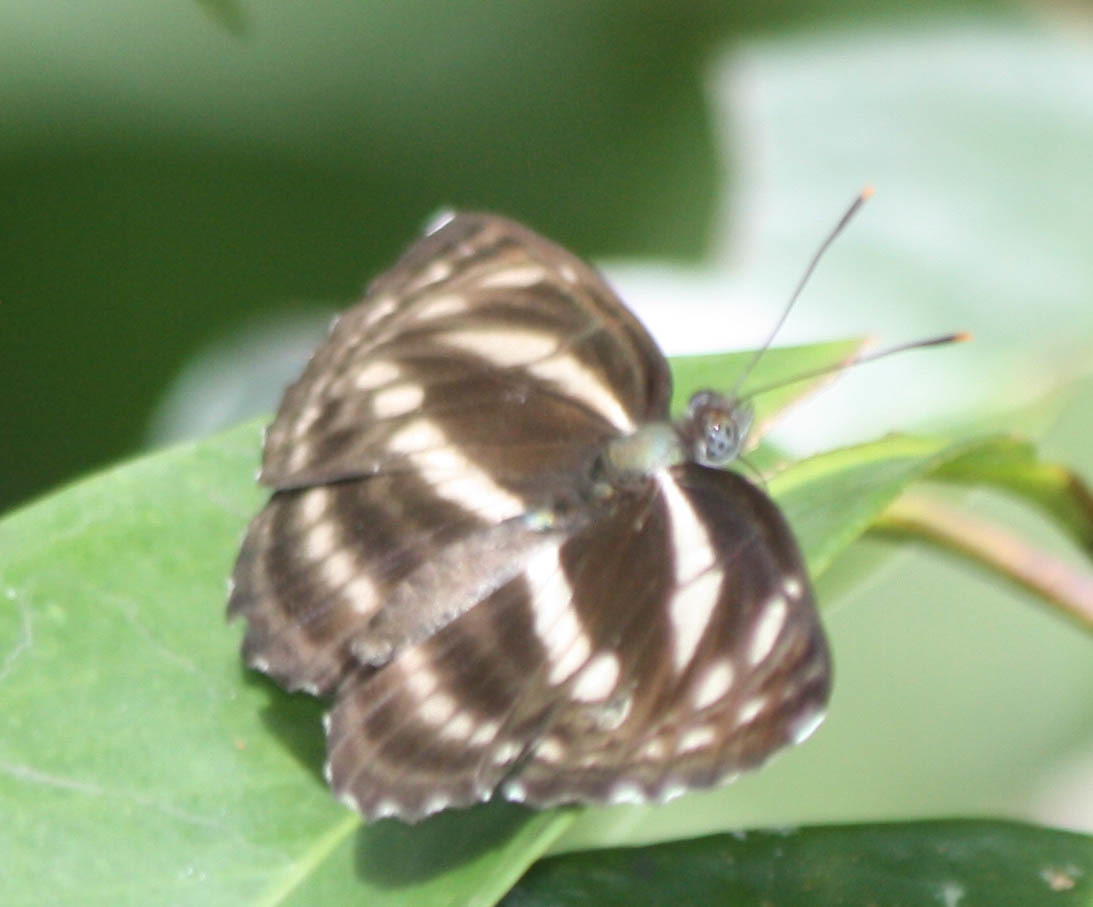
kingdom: Animalia
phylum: Arthropoda
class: Insecta
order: Lepidoptera
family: Nymphalidae
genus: Neptis
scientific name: Neptis clinia
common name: Southern sullied sailer
